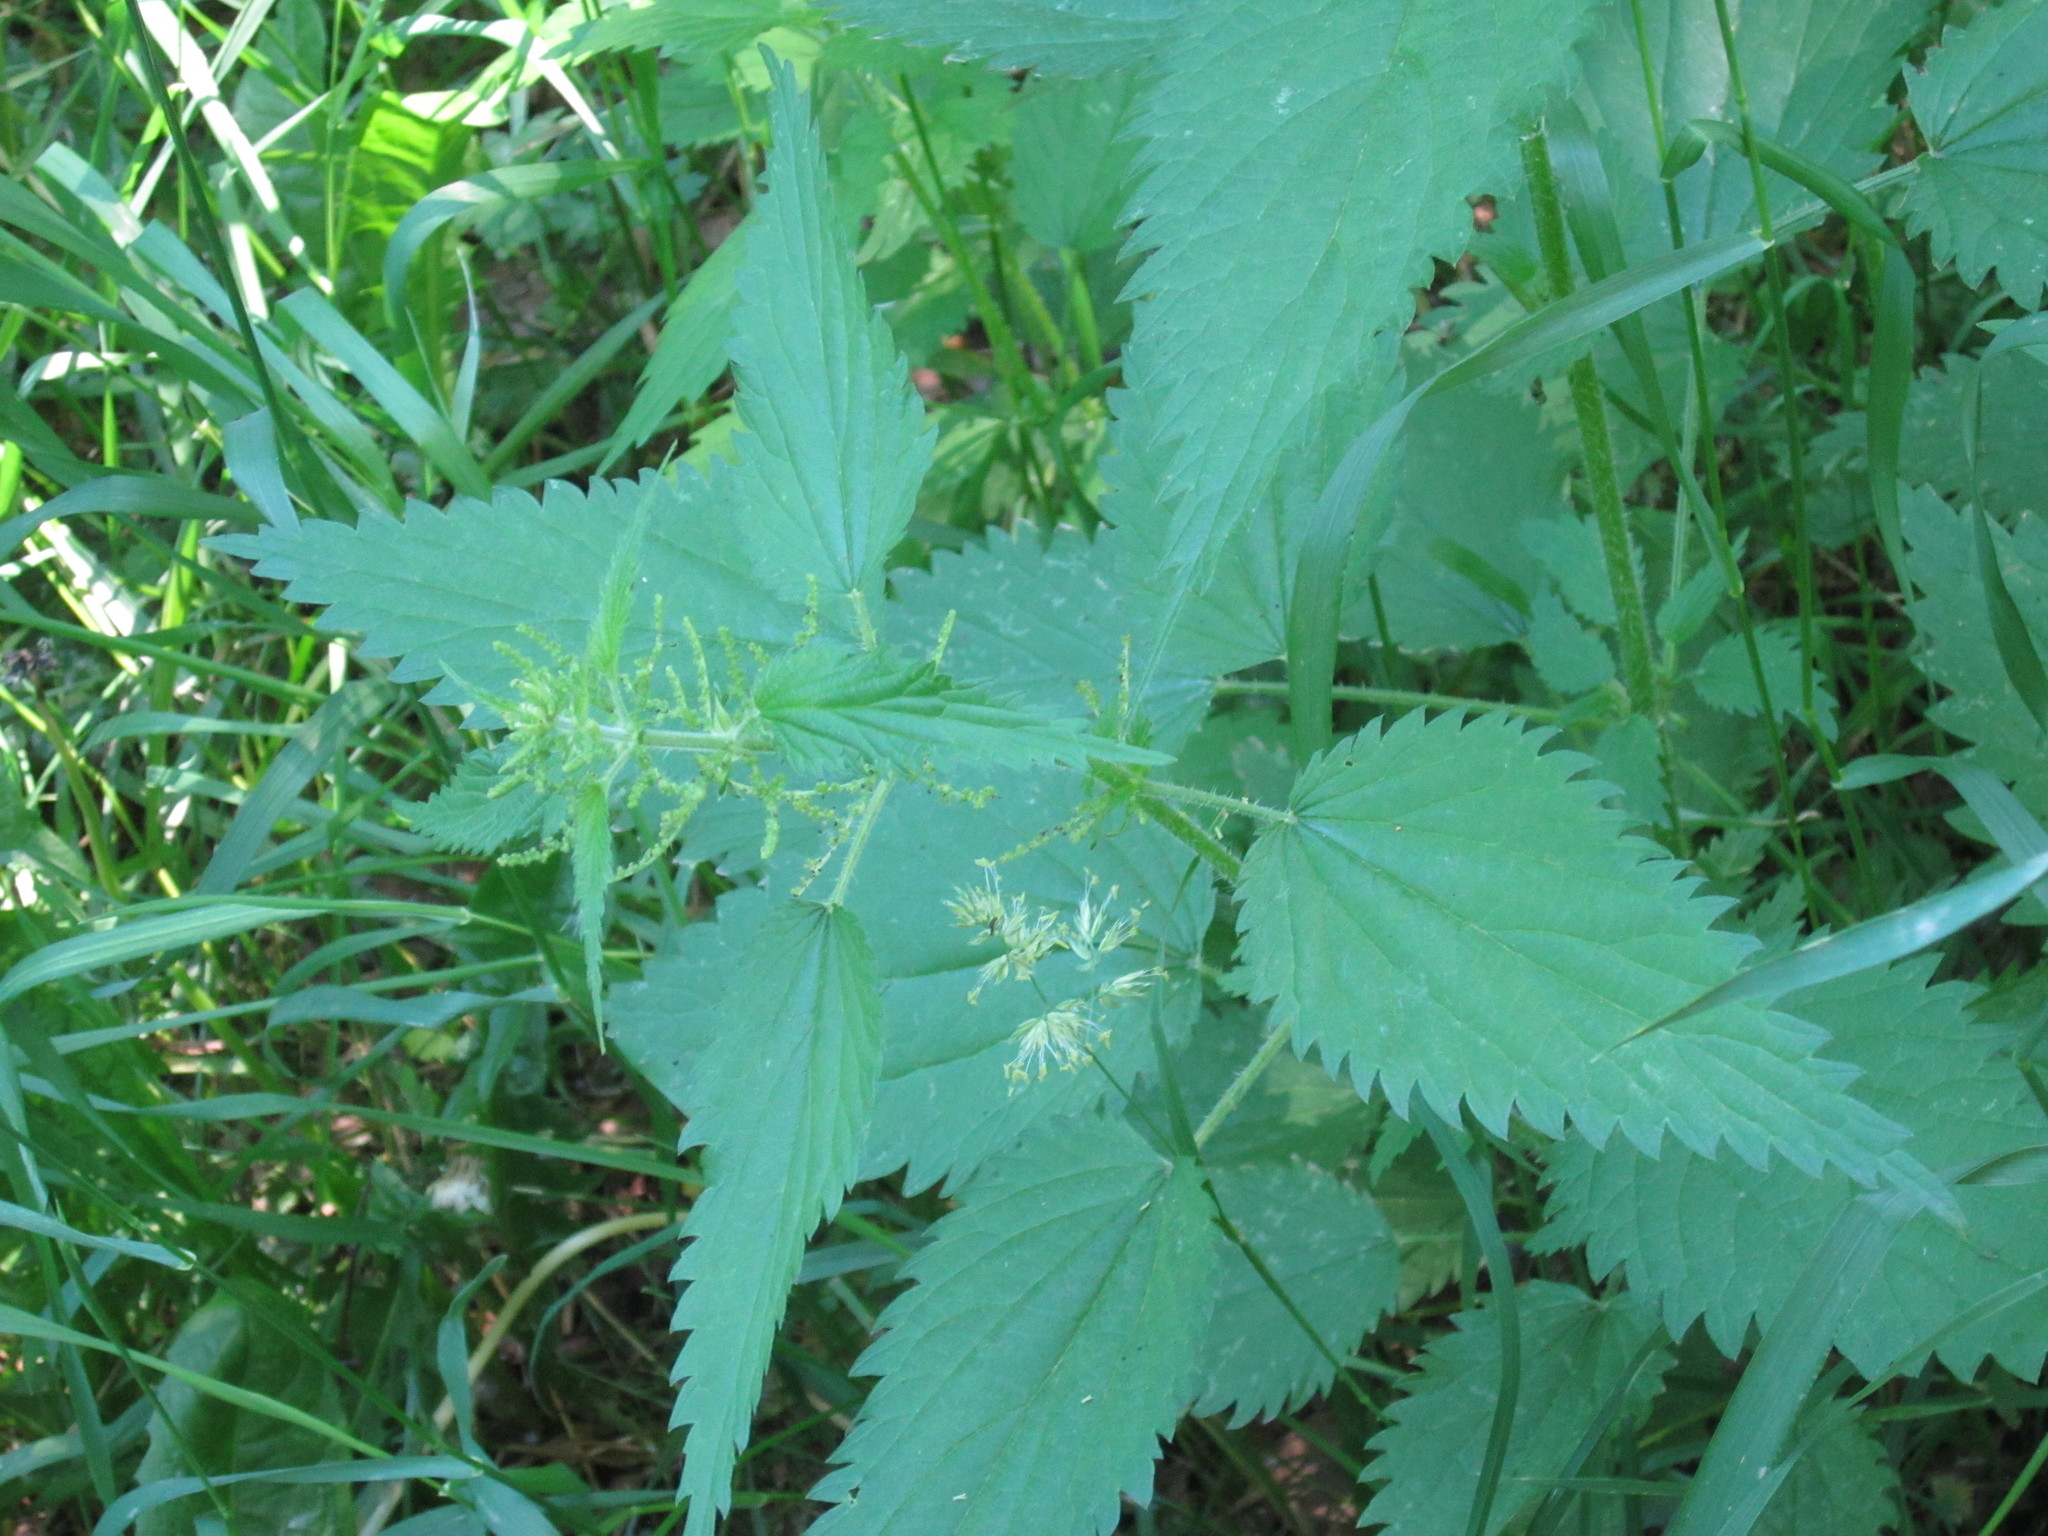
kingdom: Plantae
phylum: Tracheophyta
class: Magnoliopsida
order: Rosales
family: Urticaceae
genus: Urtica
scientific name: Urtica dioica
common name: Common nettle
